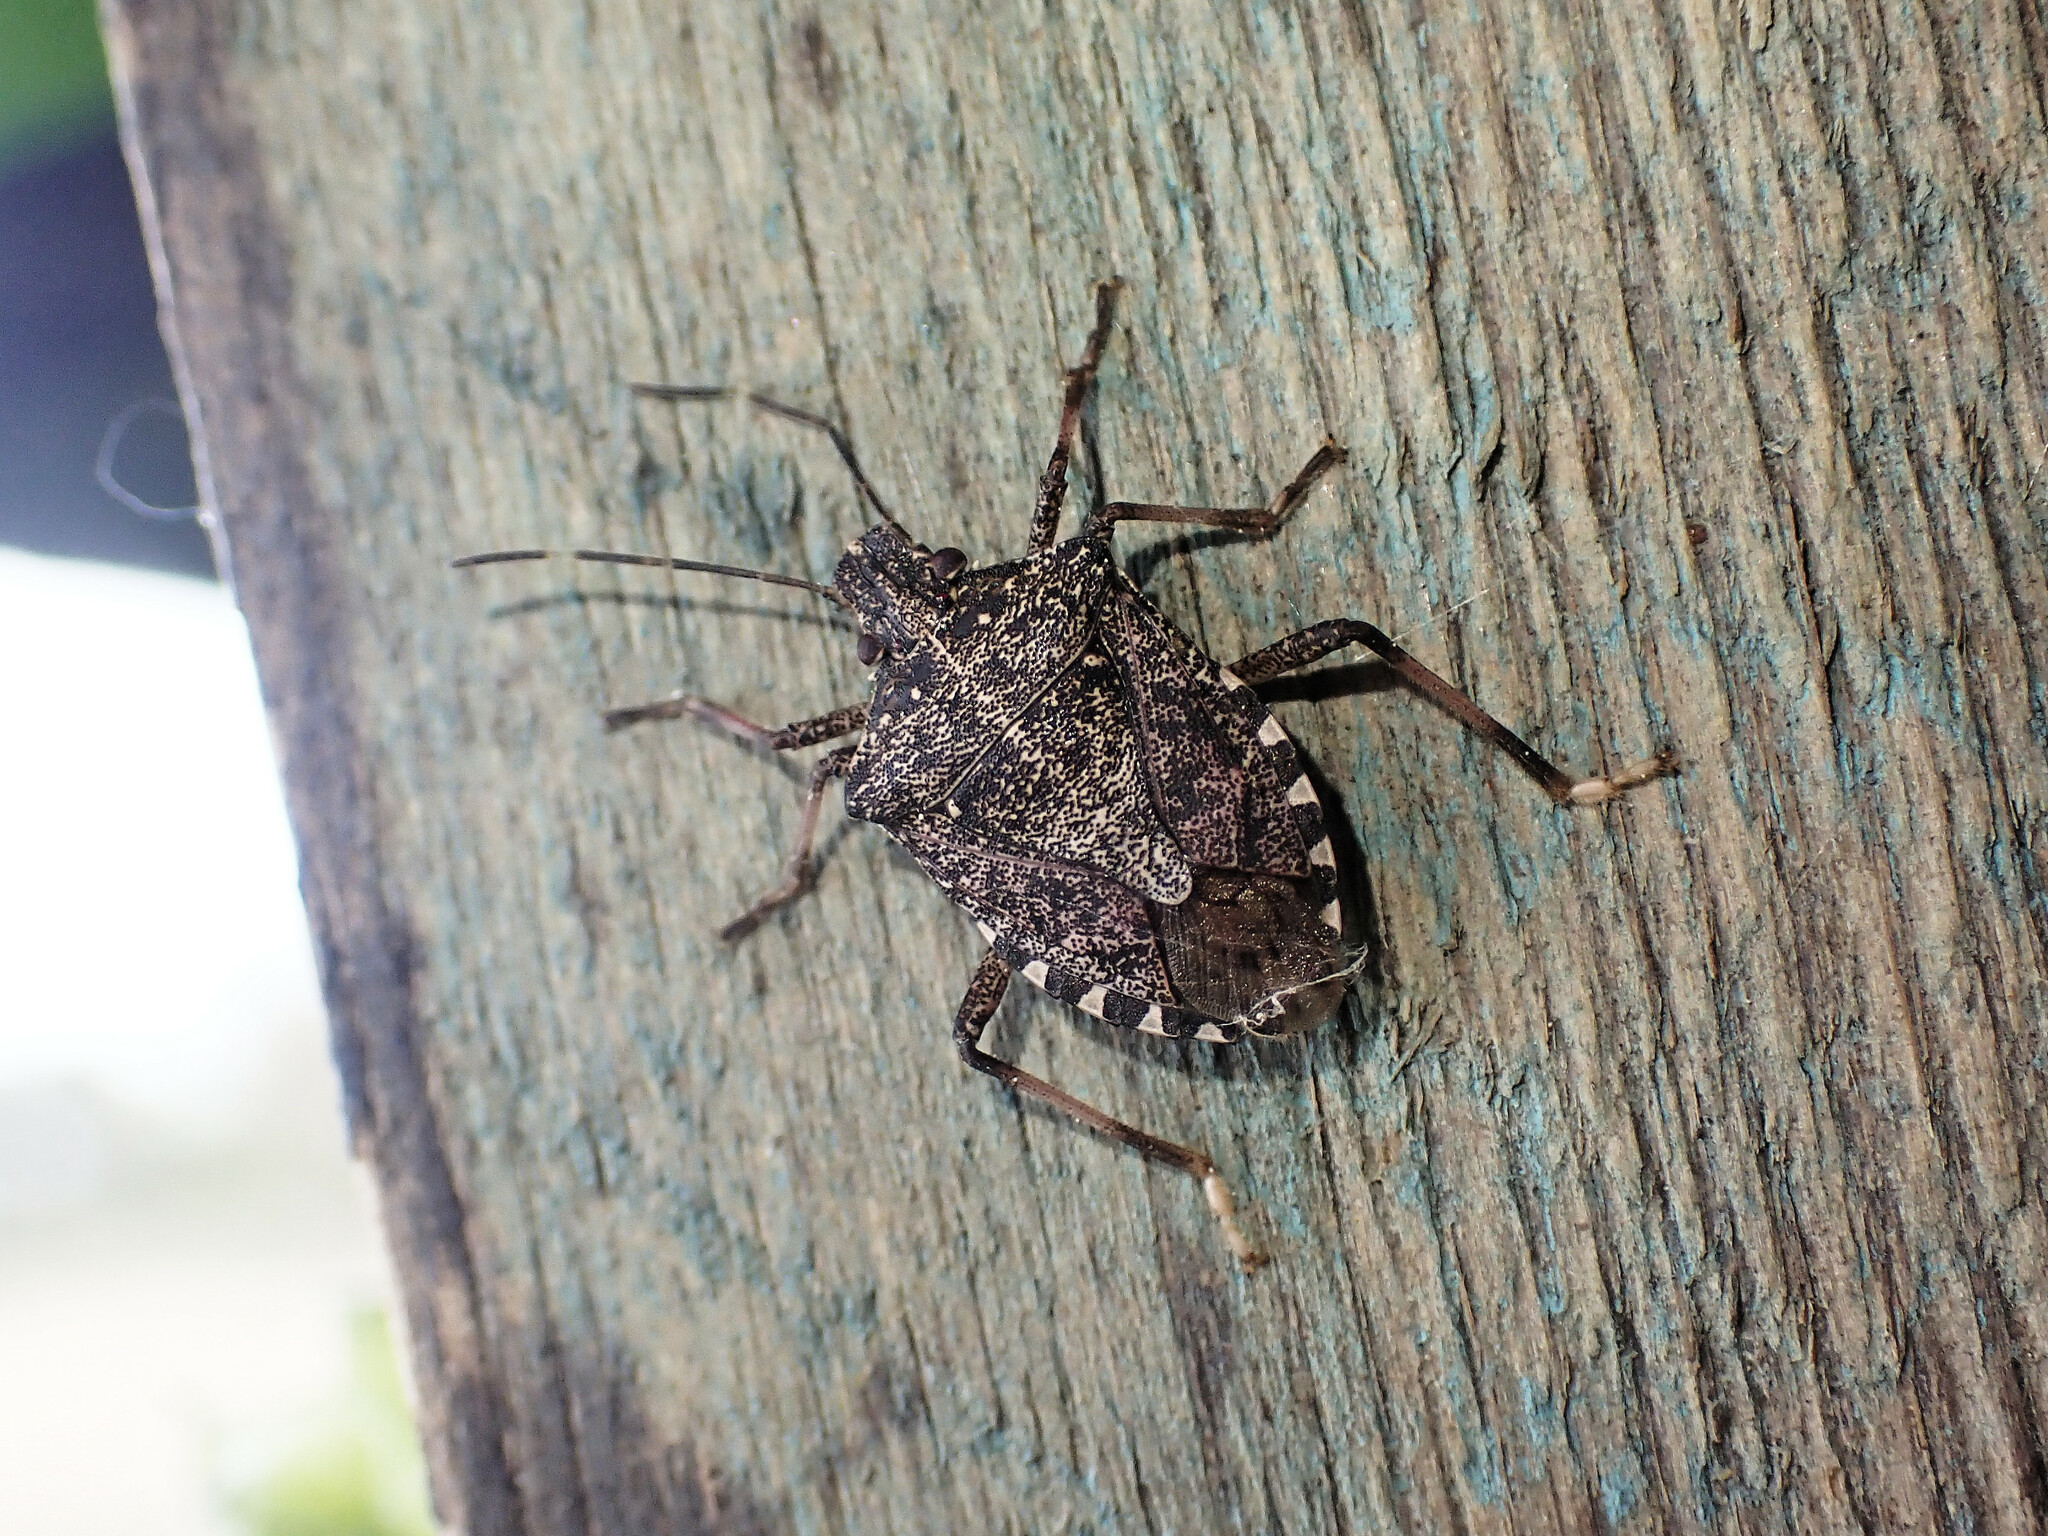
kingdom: Animalia
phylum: Arthropoda
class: Insecta
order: Hemiptera
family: Pentatomidae
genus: Halyomorpha
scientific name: Halyomorpha halys
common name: Brown marmorated stink bug
